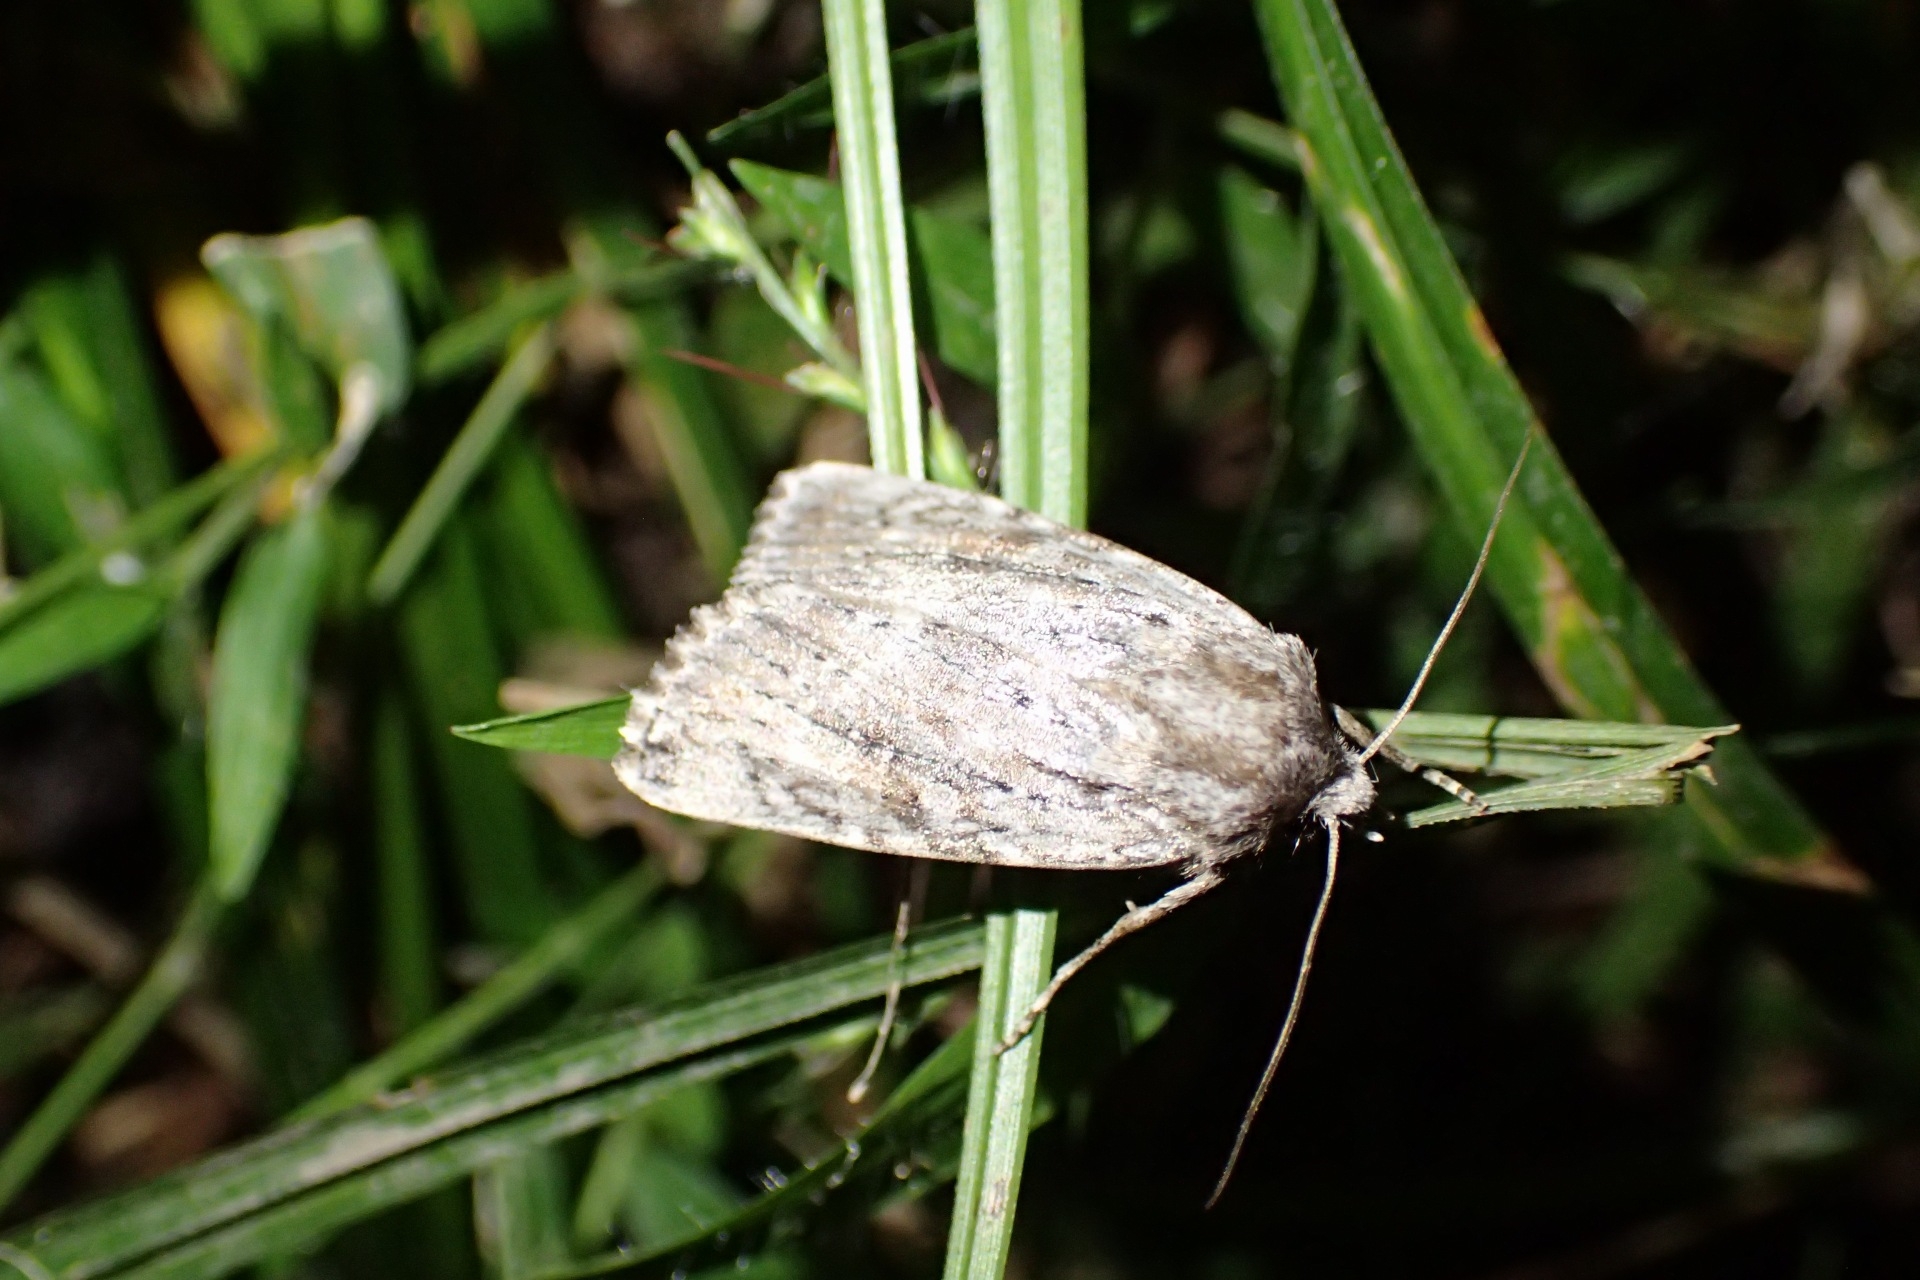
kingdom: Animalia
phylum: Arthropoda
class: Insecta
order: Lepidoptera
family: Noctuidae
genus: Ectopatria
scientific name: Ectopatria aspera
